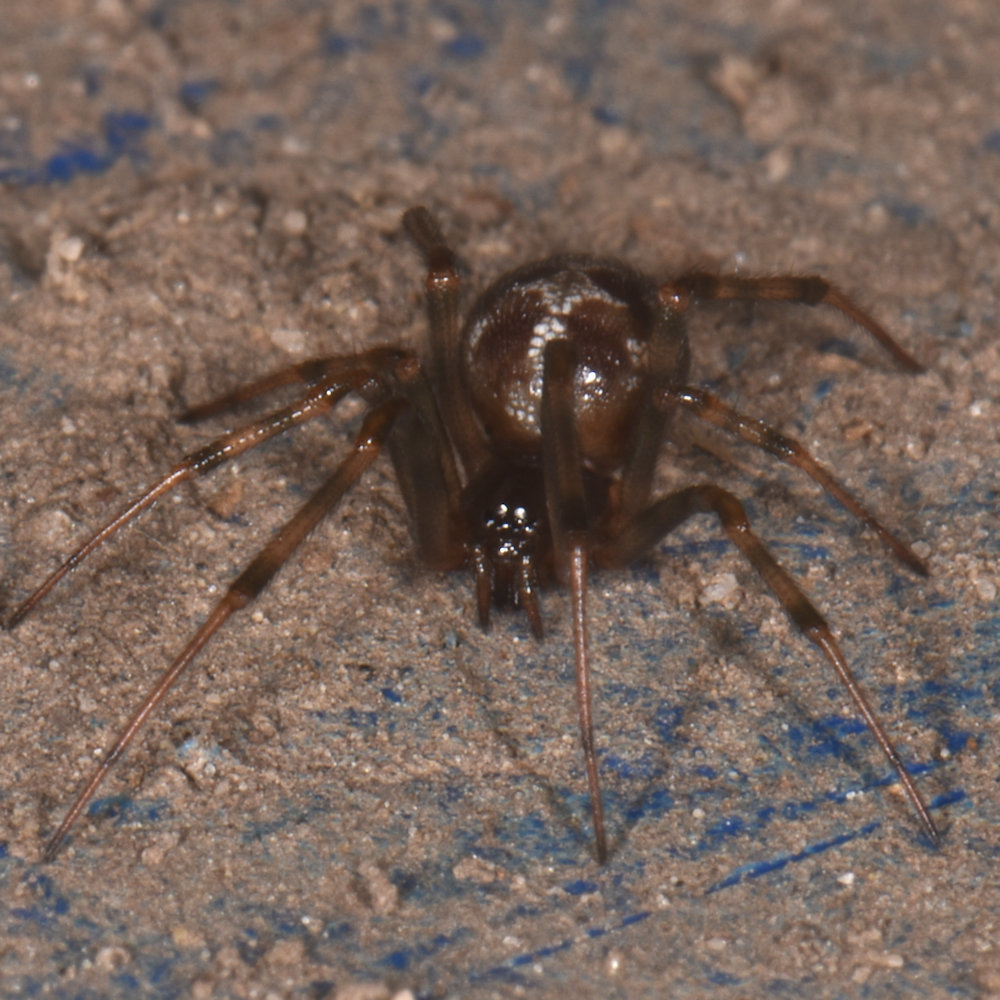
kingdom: Animalia
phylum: Arthropoda
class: Arachnida
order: Araneae
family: Theridiidae
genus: Steatoda
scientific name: Steatoda triangulosa
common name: Triangulate bud spider
